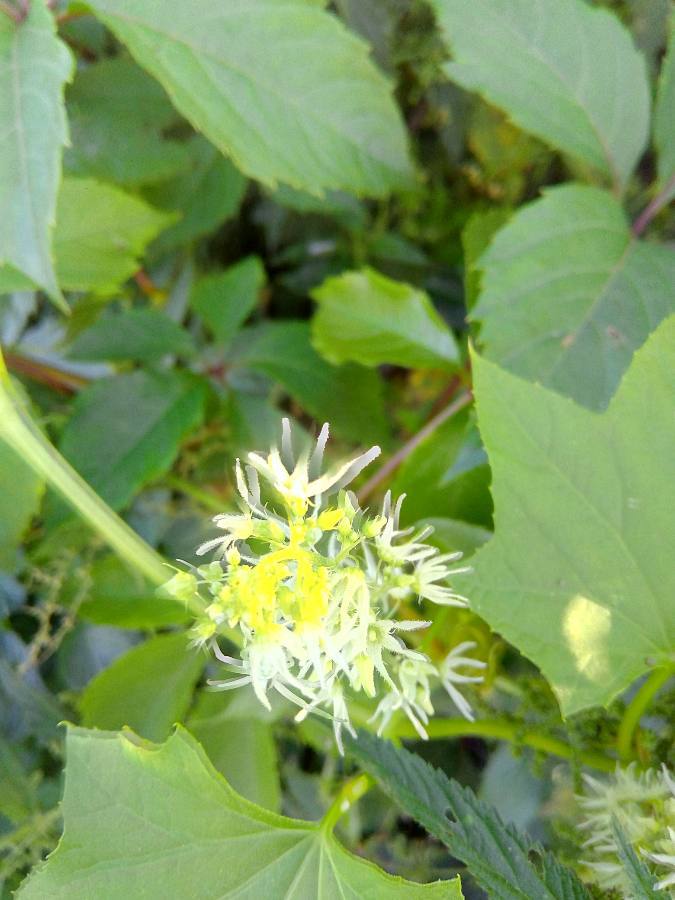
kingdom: Plantae
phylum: Tracheophyta
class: Magnoliopsida
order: Cucurbitales
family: Cucurbitaceae
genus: Echinocystis
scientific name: Echinocystis lobata
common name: Wild cucumber
